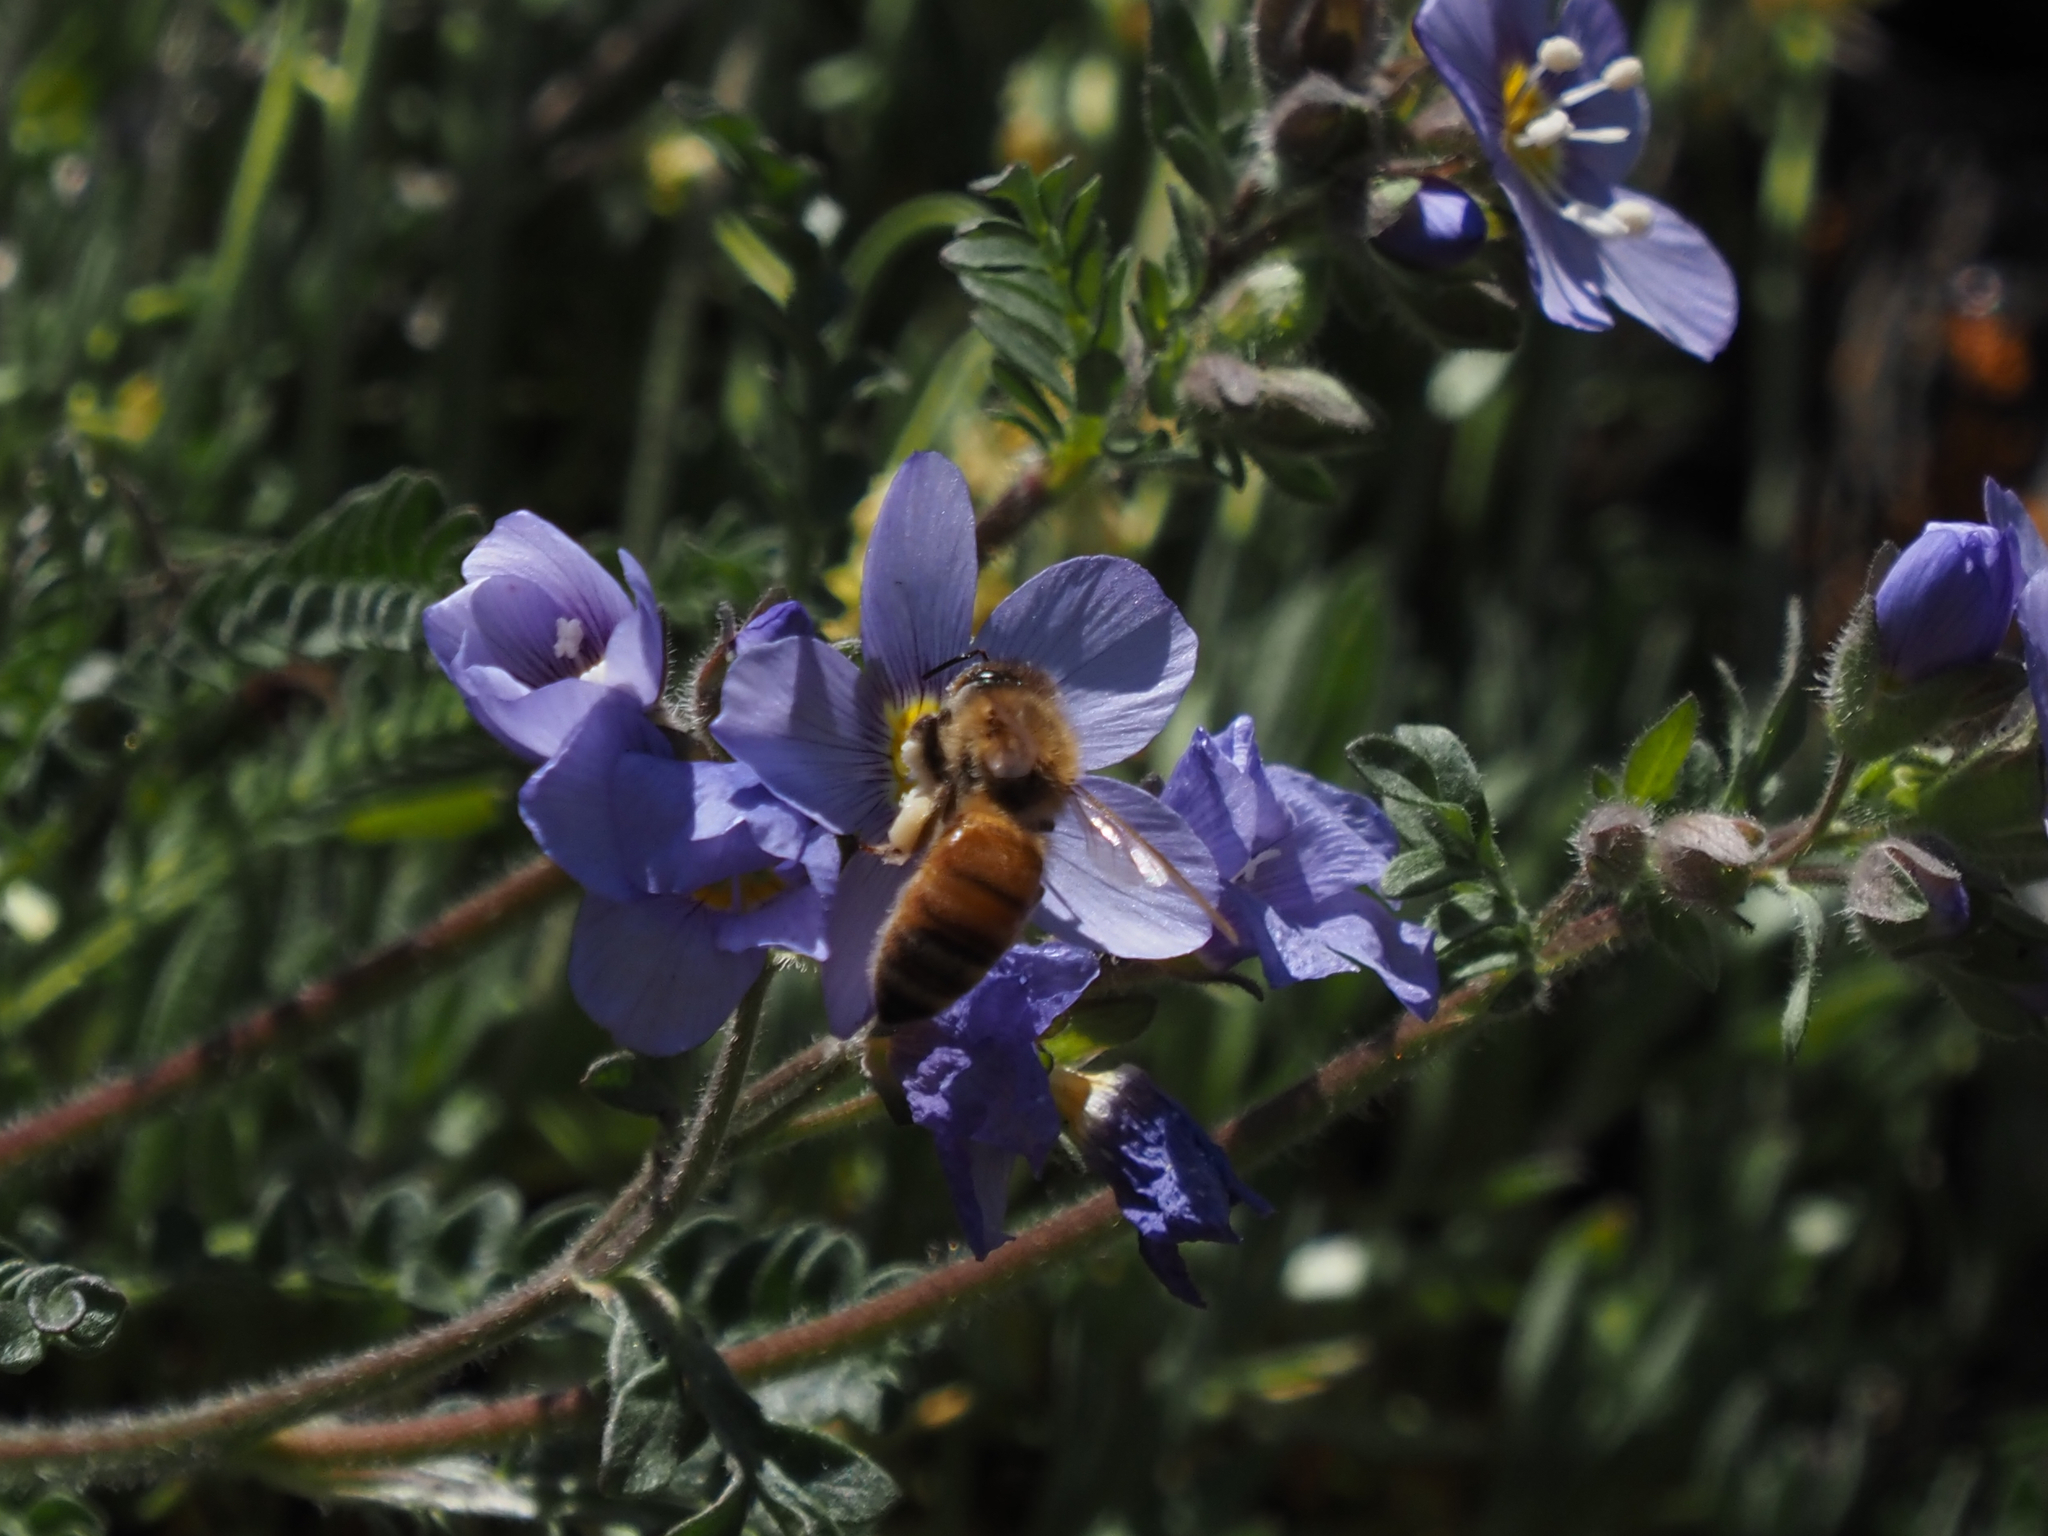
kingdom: Animalia
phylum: Arthropoda
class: Insecta
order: Hymenoptera
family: Apidae
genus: Apis
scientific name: Apis mellifera
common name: Honey bee
